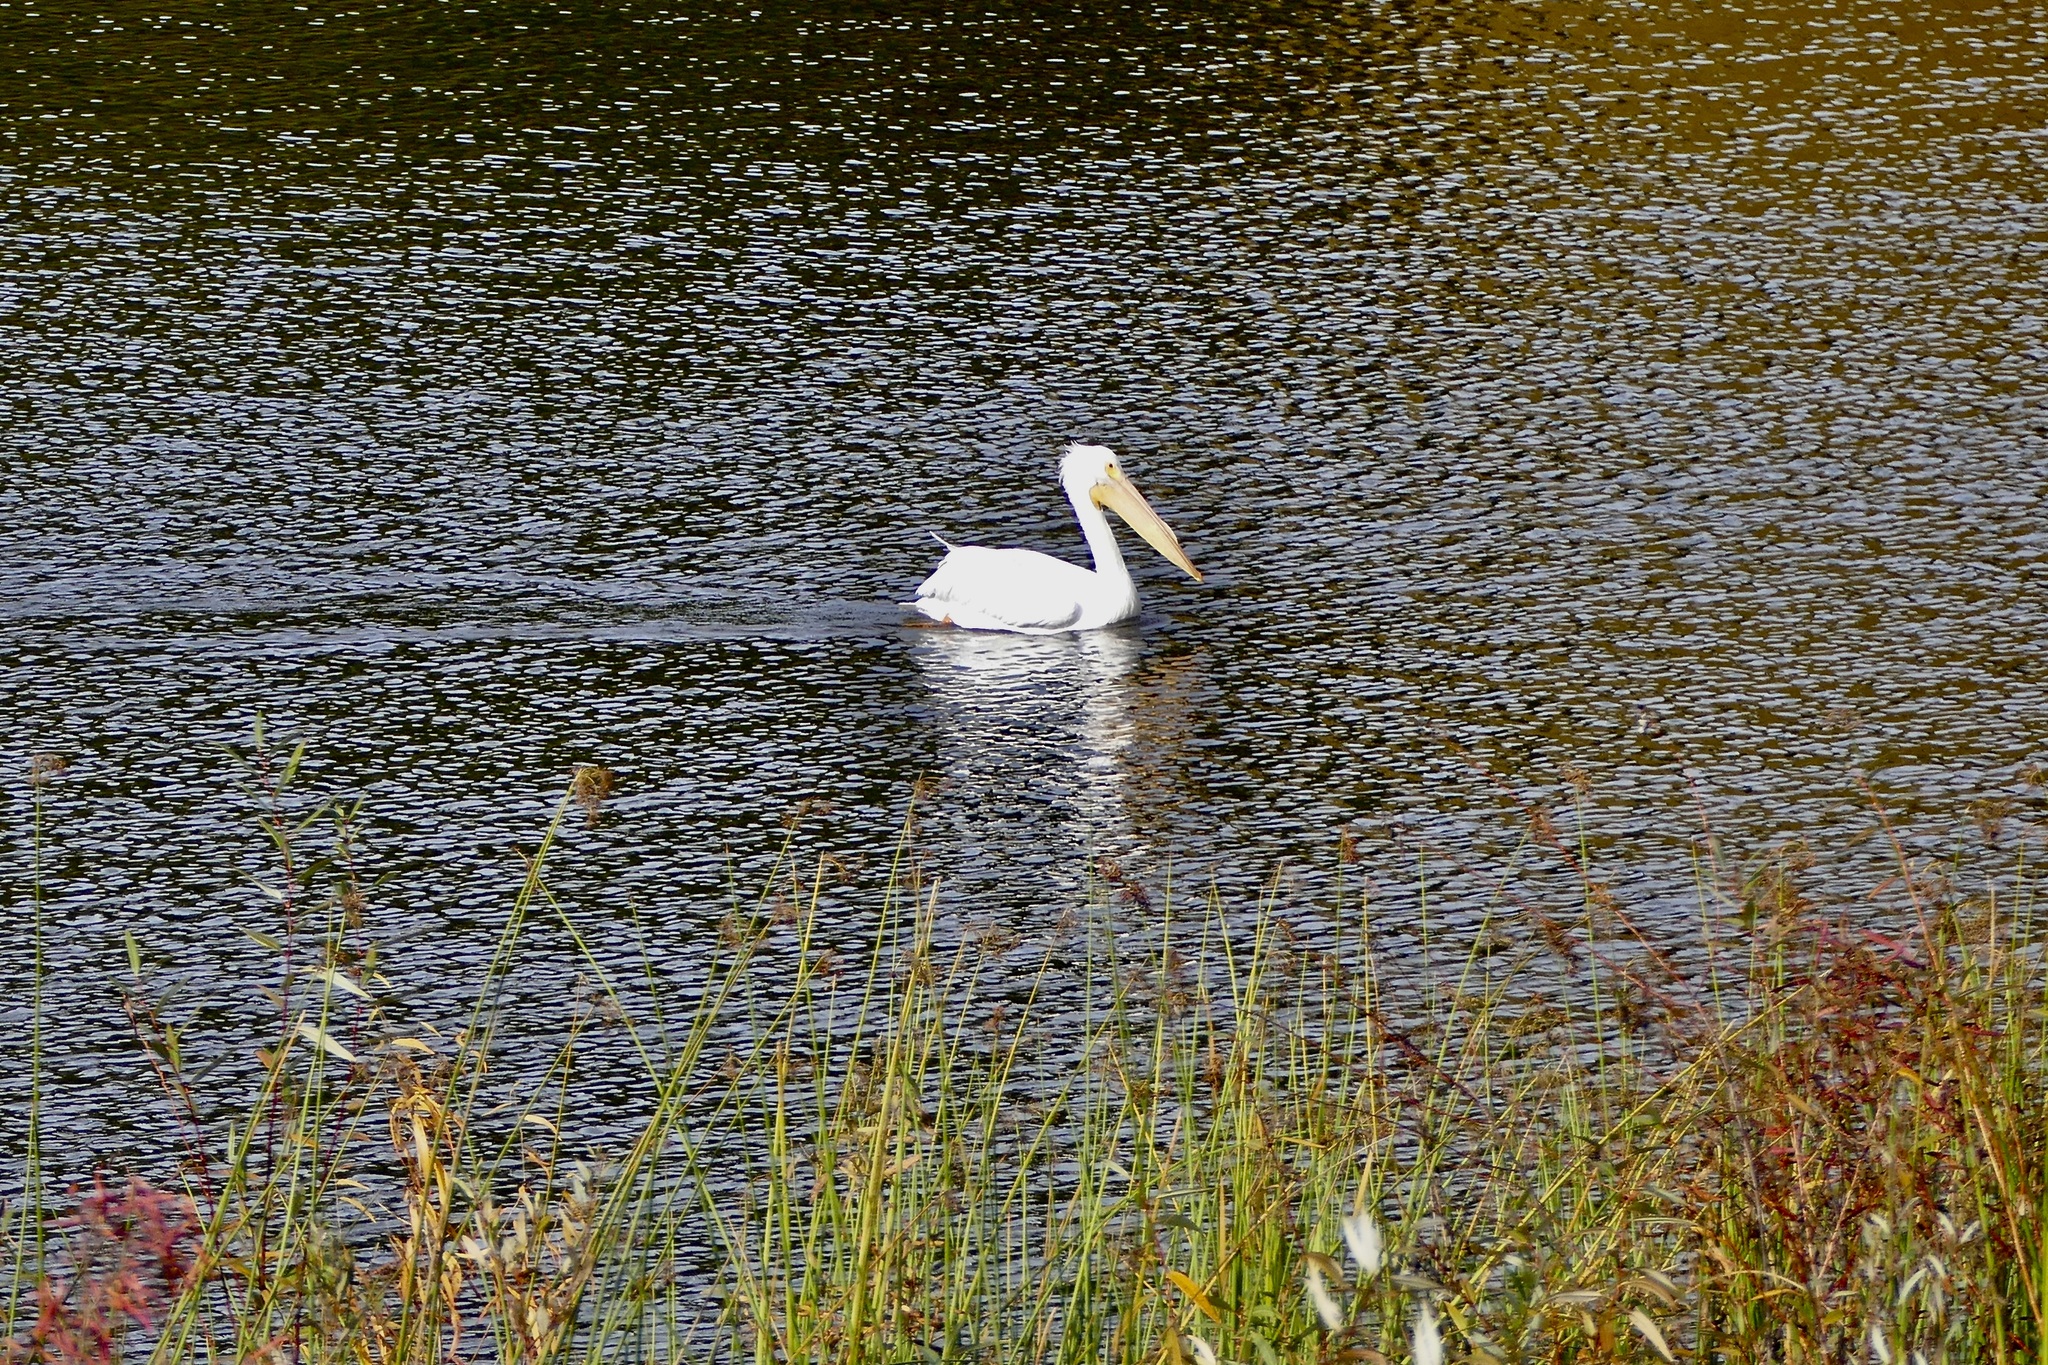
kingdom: Animalia
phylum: Chordata
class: Aves
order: Pelecaniformes
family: Pelecanidae
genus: Pelecanus
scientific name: Pelecanus erythrorhynchos
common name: American white pelican
